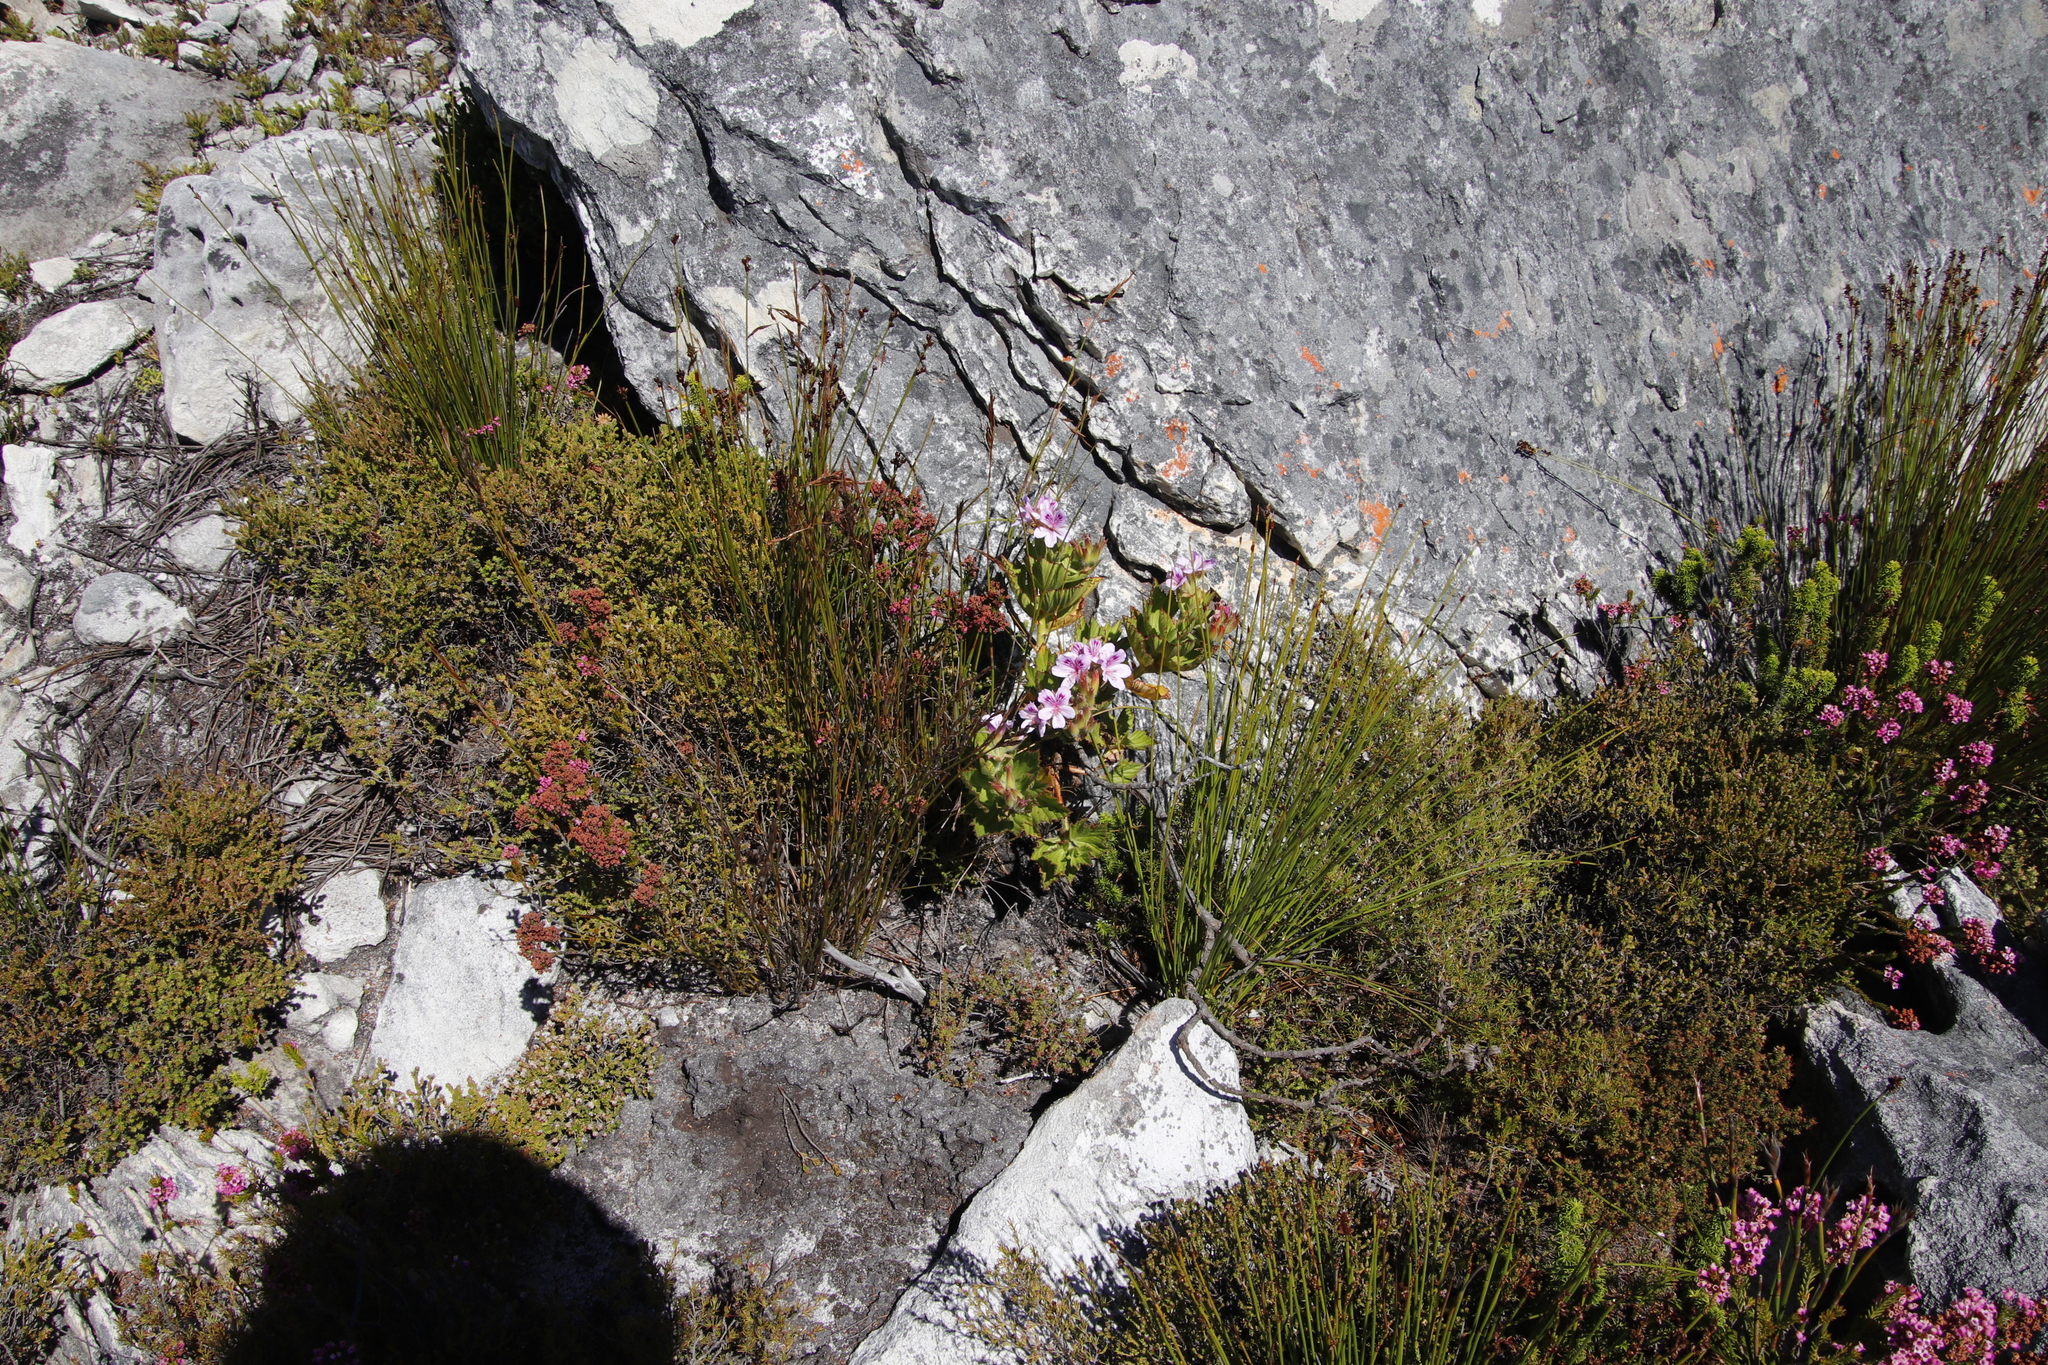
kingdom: Plantae
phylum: Tracheophyta
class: Magnoliopsida
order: Geraniales
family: Geraniaceae
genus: Pelargonium
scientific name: Pelargonium cucullatum
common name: Tree pelargonium
